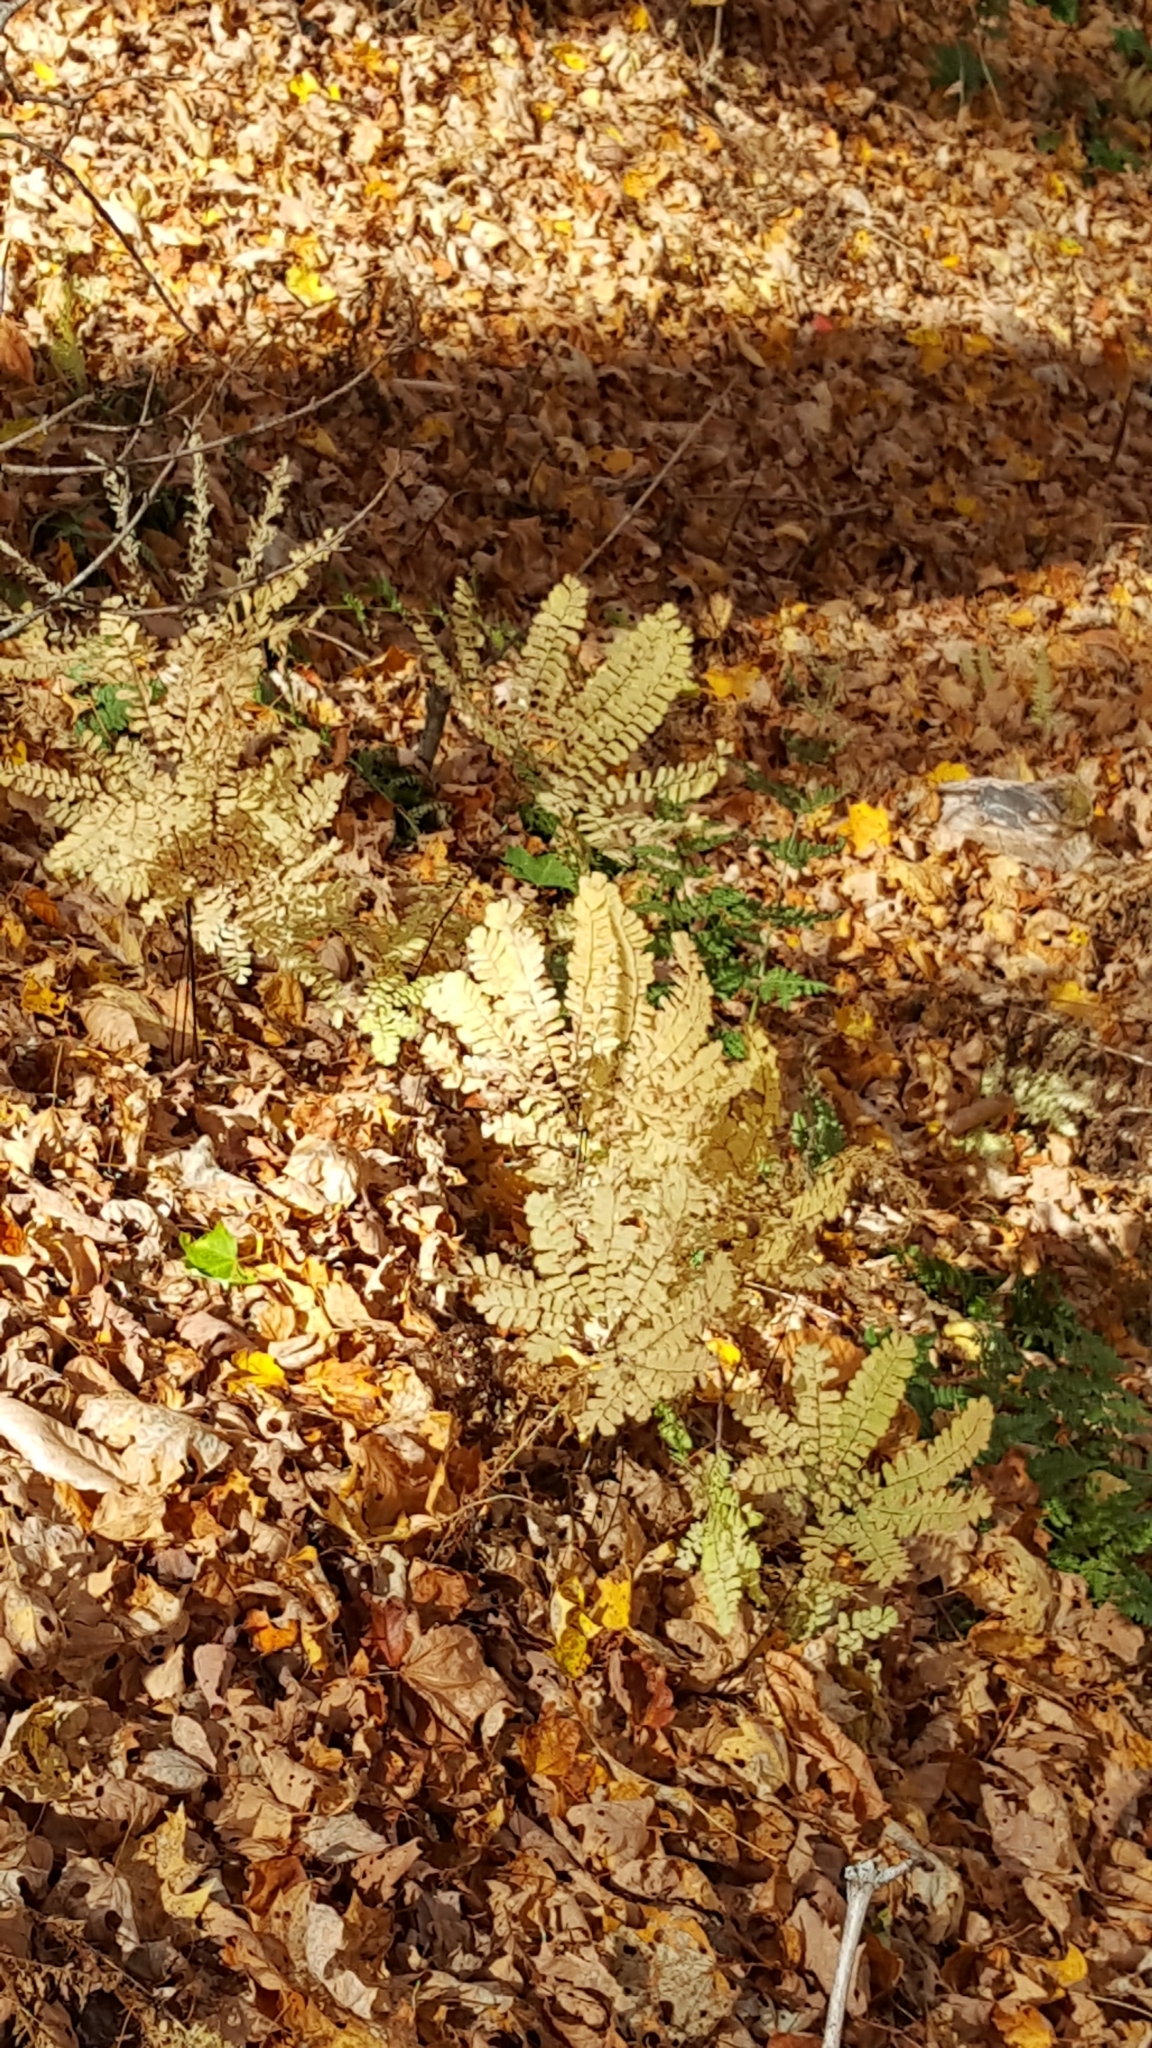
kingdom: Plantae
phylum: Tracheophyta
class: Polypodiopsida
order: Polypodiales
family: Pteridaceae
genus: Adiantum
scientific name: Adiantum pedatum
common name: Five-finger fern
